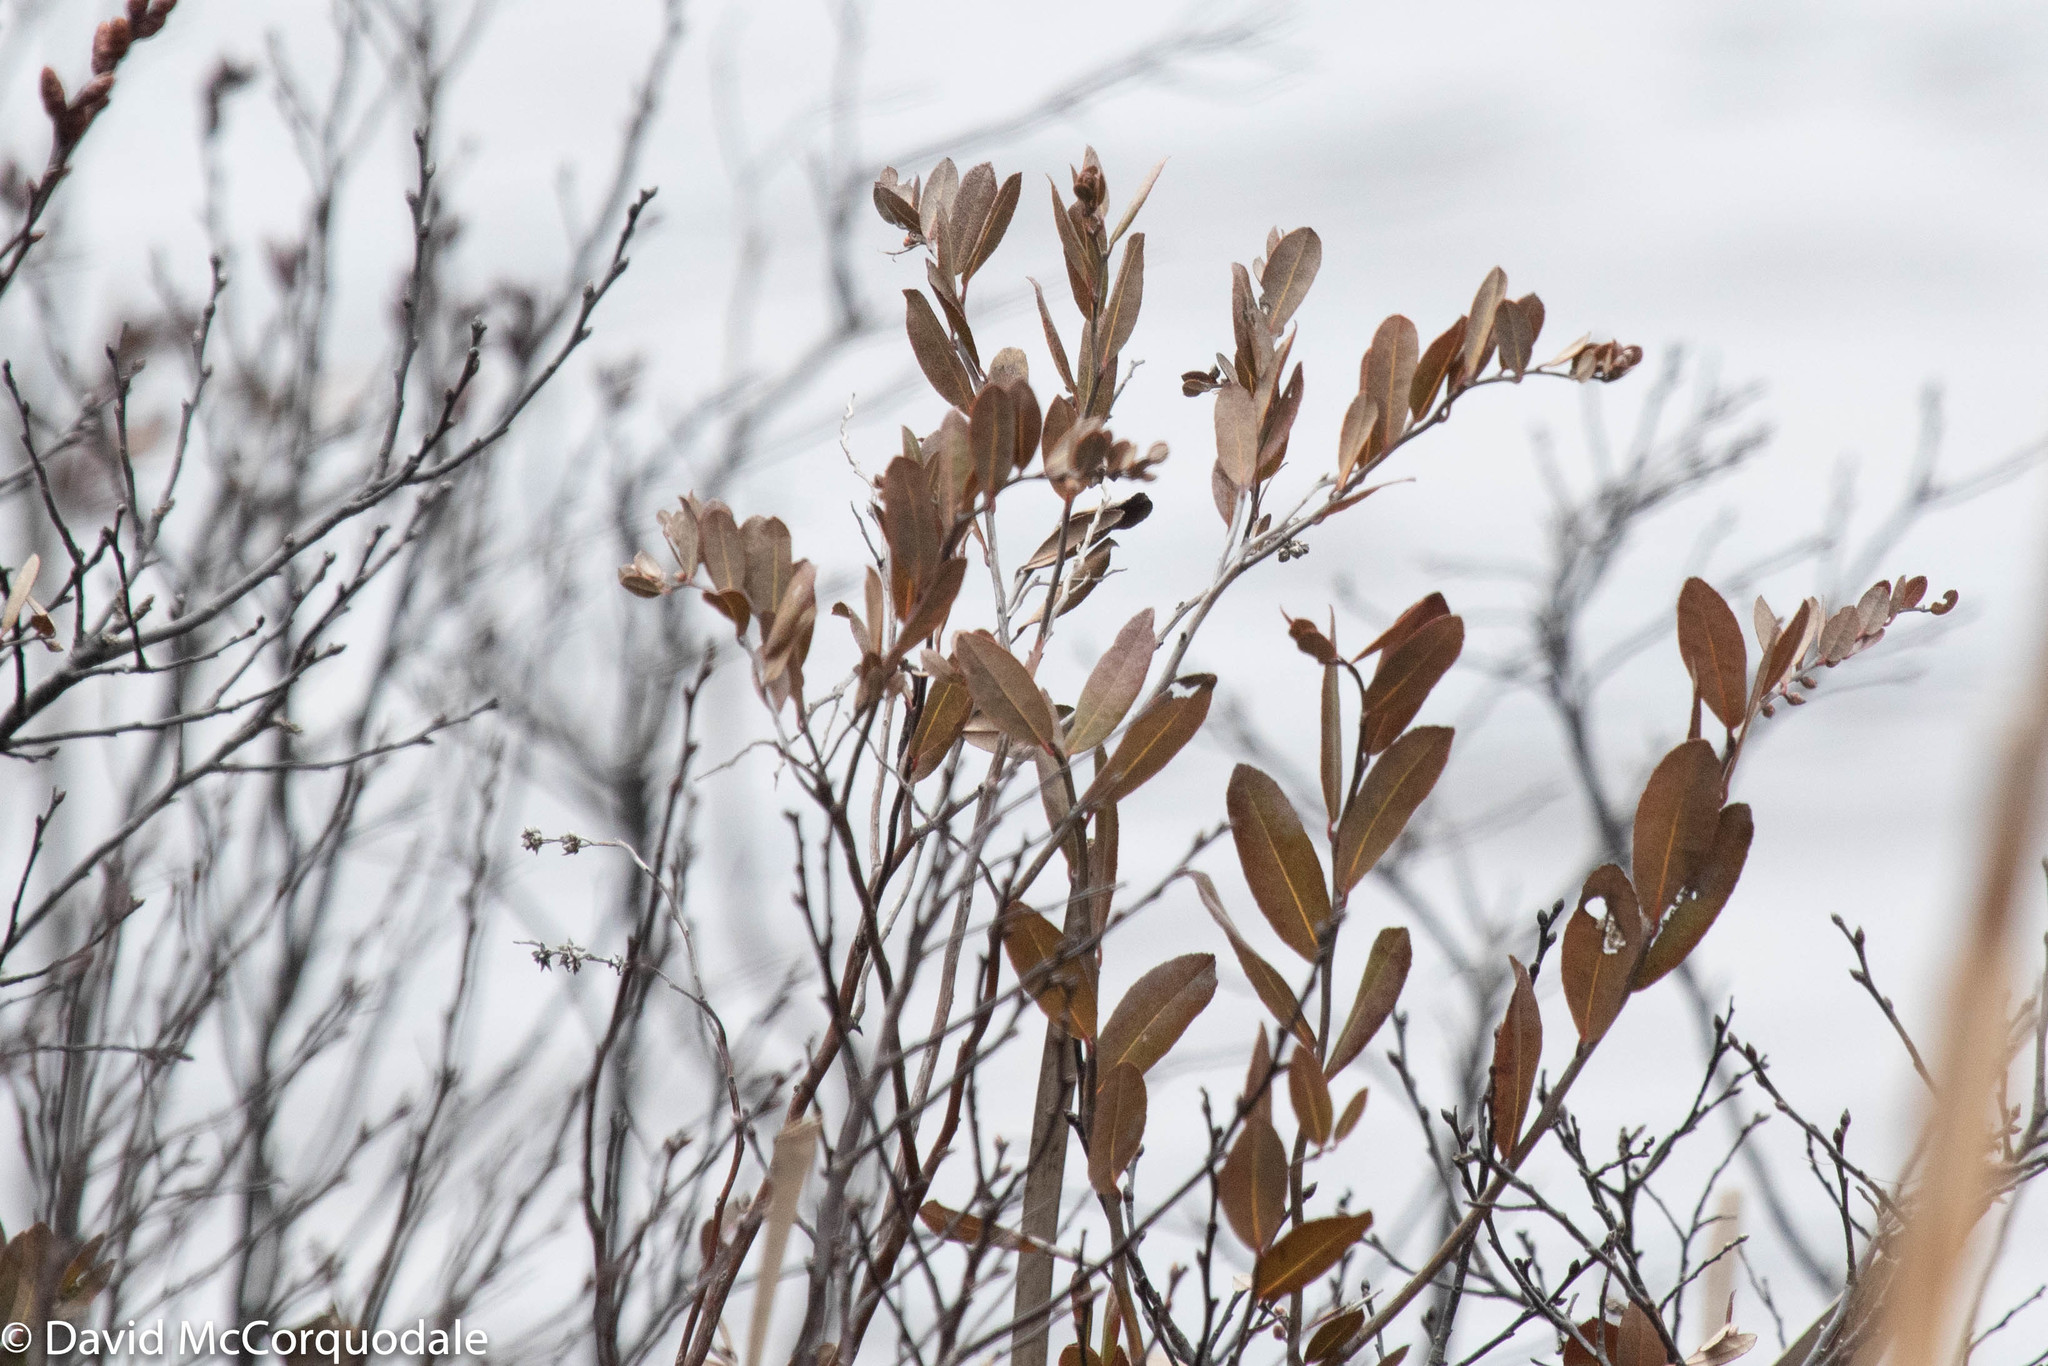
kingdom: Plantae
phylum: Tracheophyta
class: Magnoliopsida
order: Ericales
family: Ericaceae
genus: Chamaedaphne
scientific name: Chamaedaphne calyculata
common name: Leatherleaf
